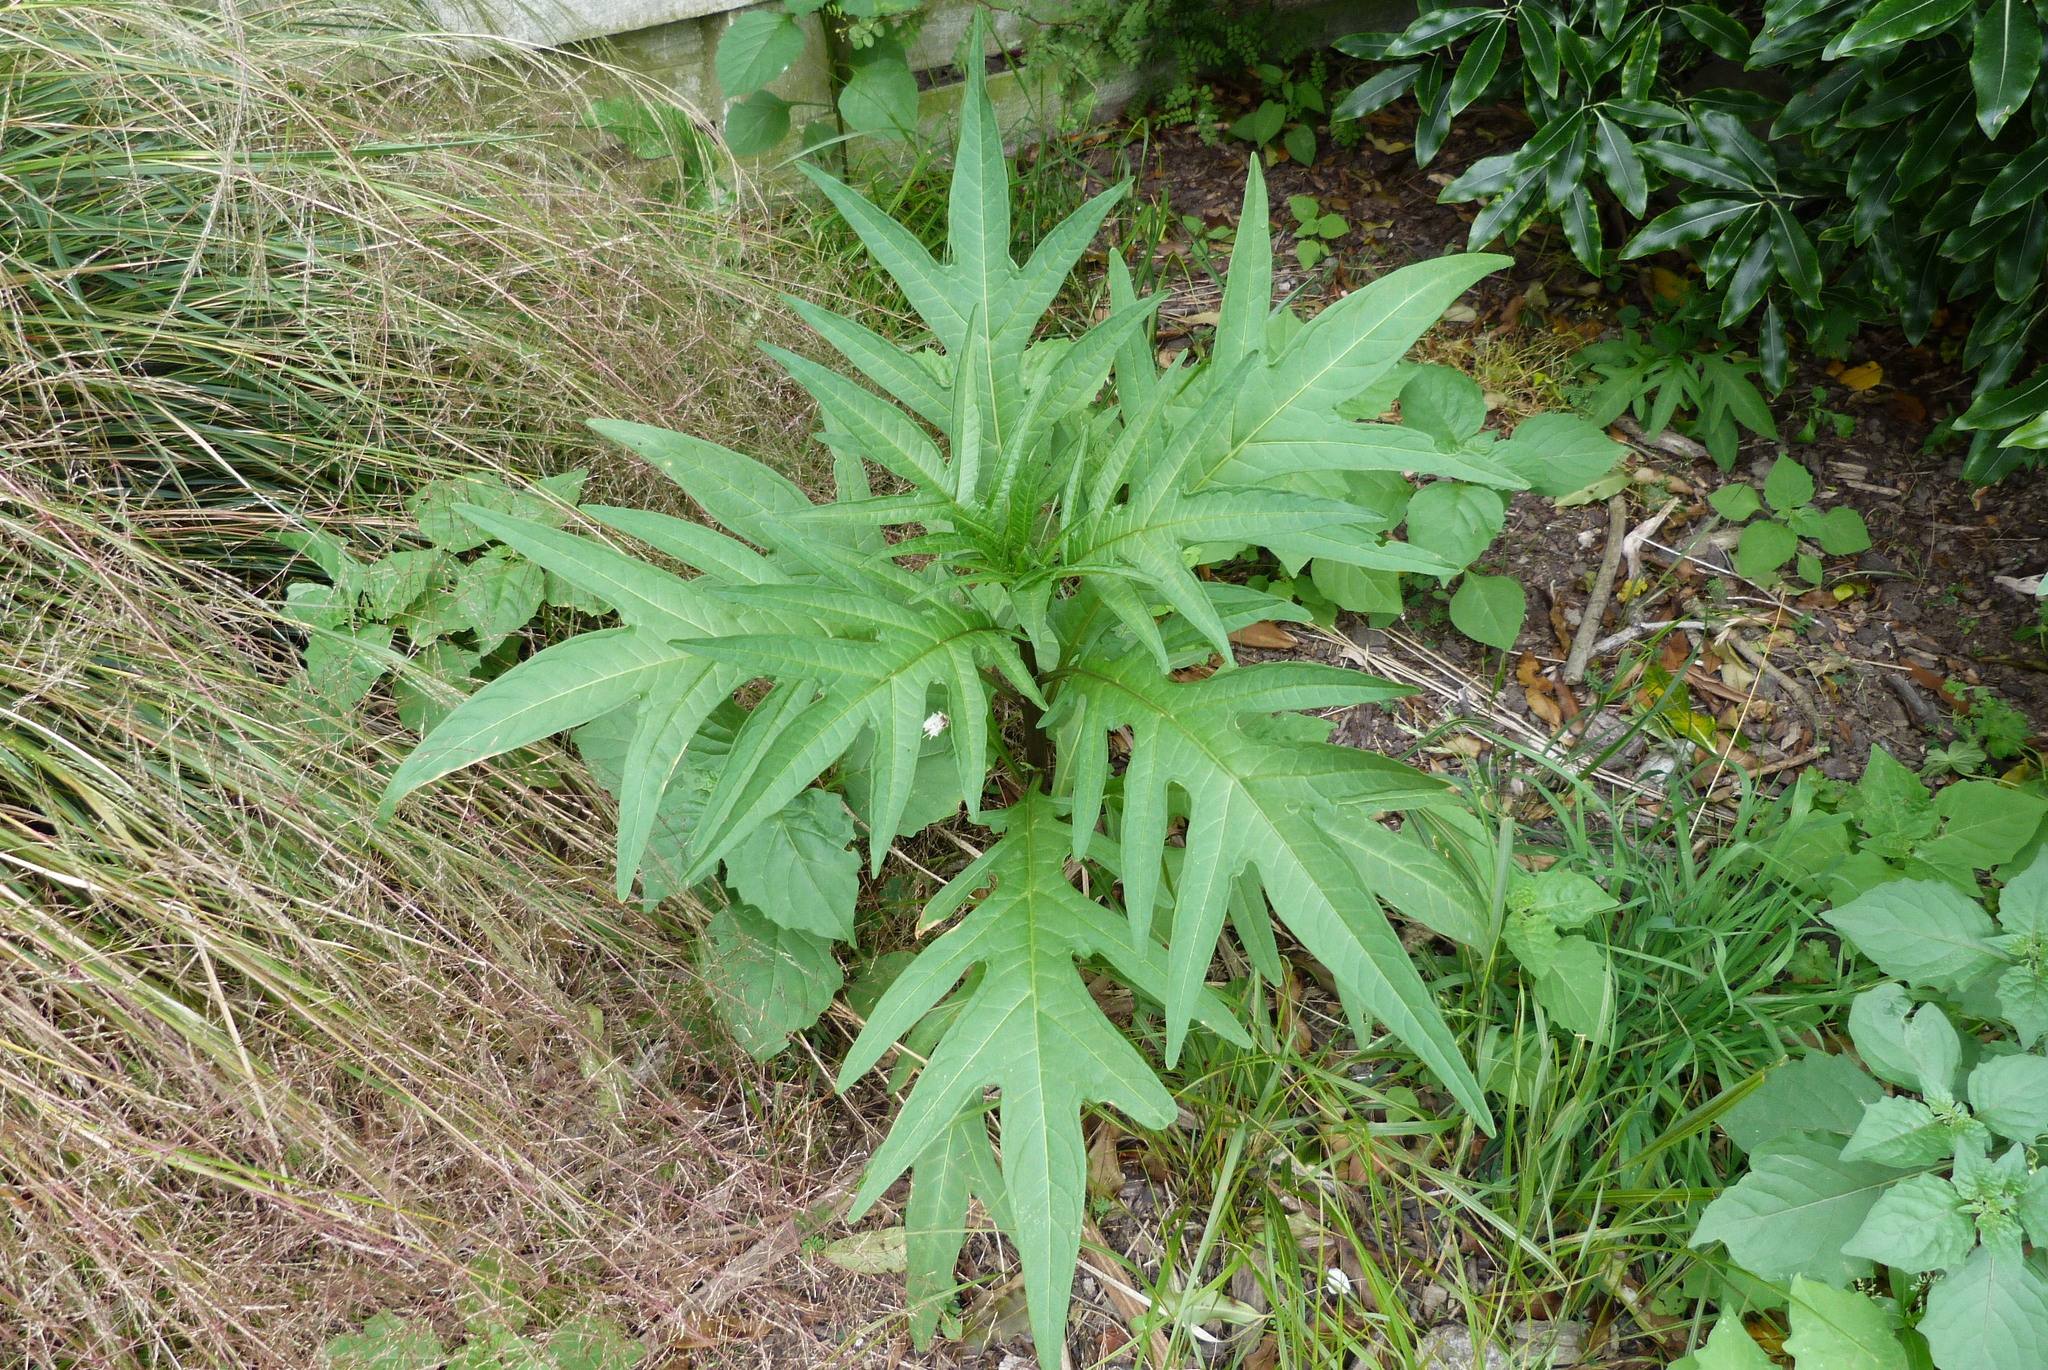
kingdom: Plantae
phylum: Tracheophyta
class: Magnoliopsida
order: Solanales
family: Solanaceae
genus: Solanum
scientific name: Solanum
